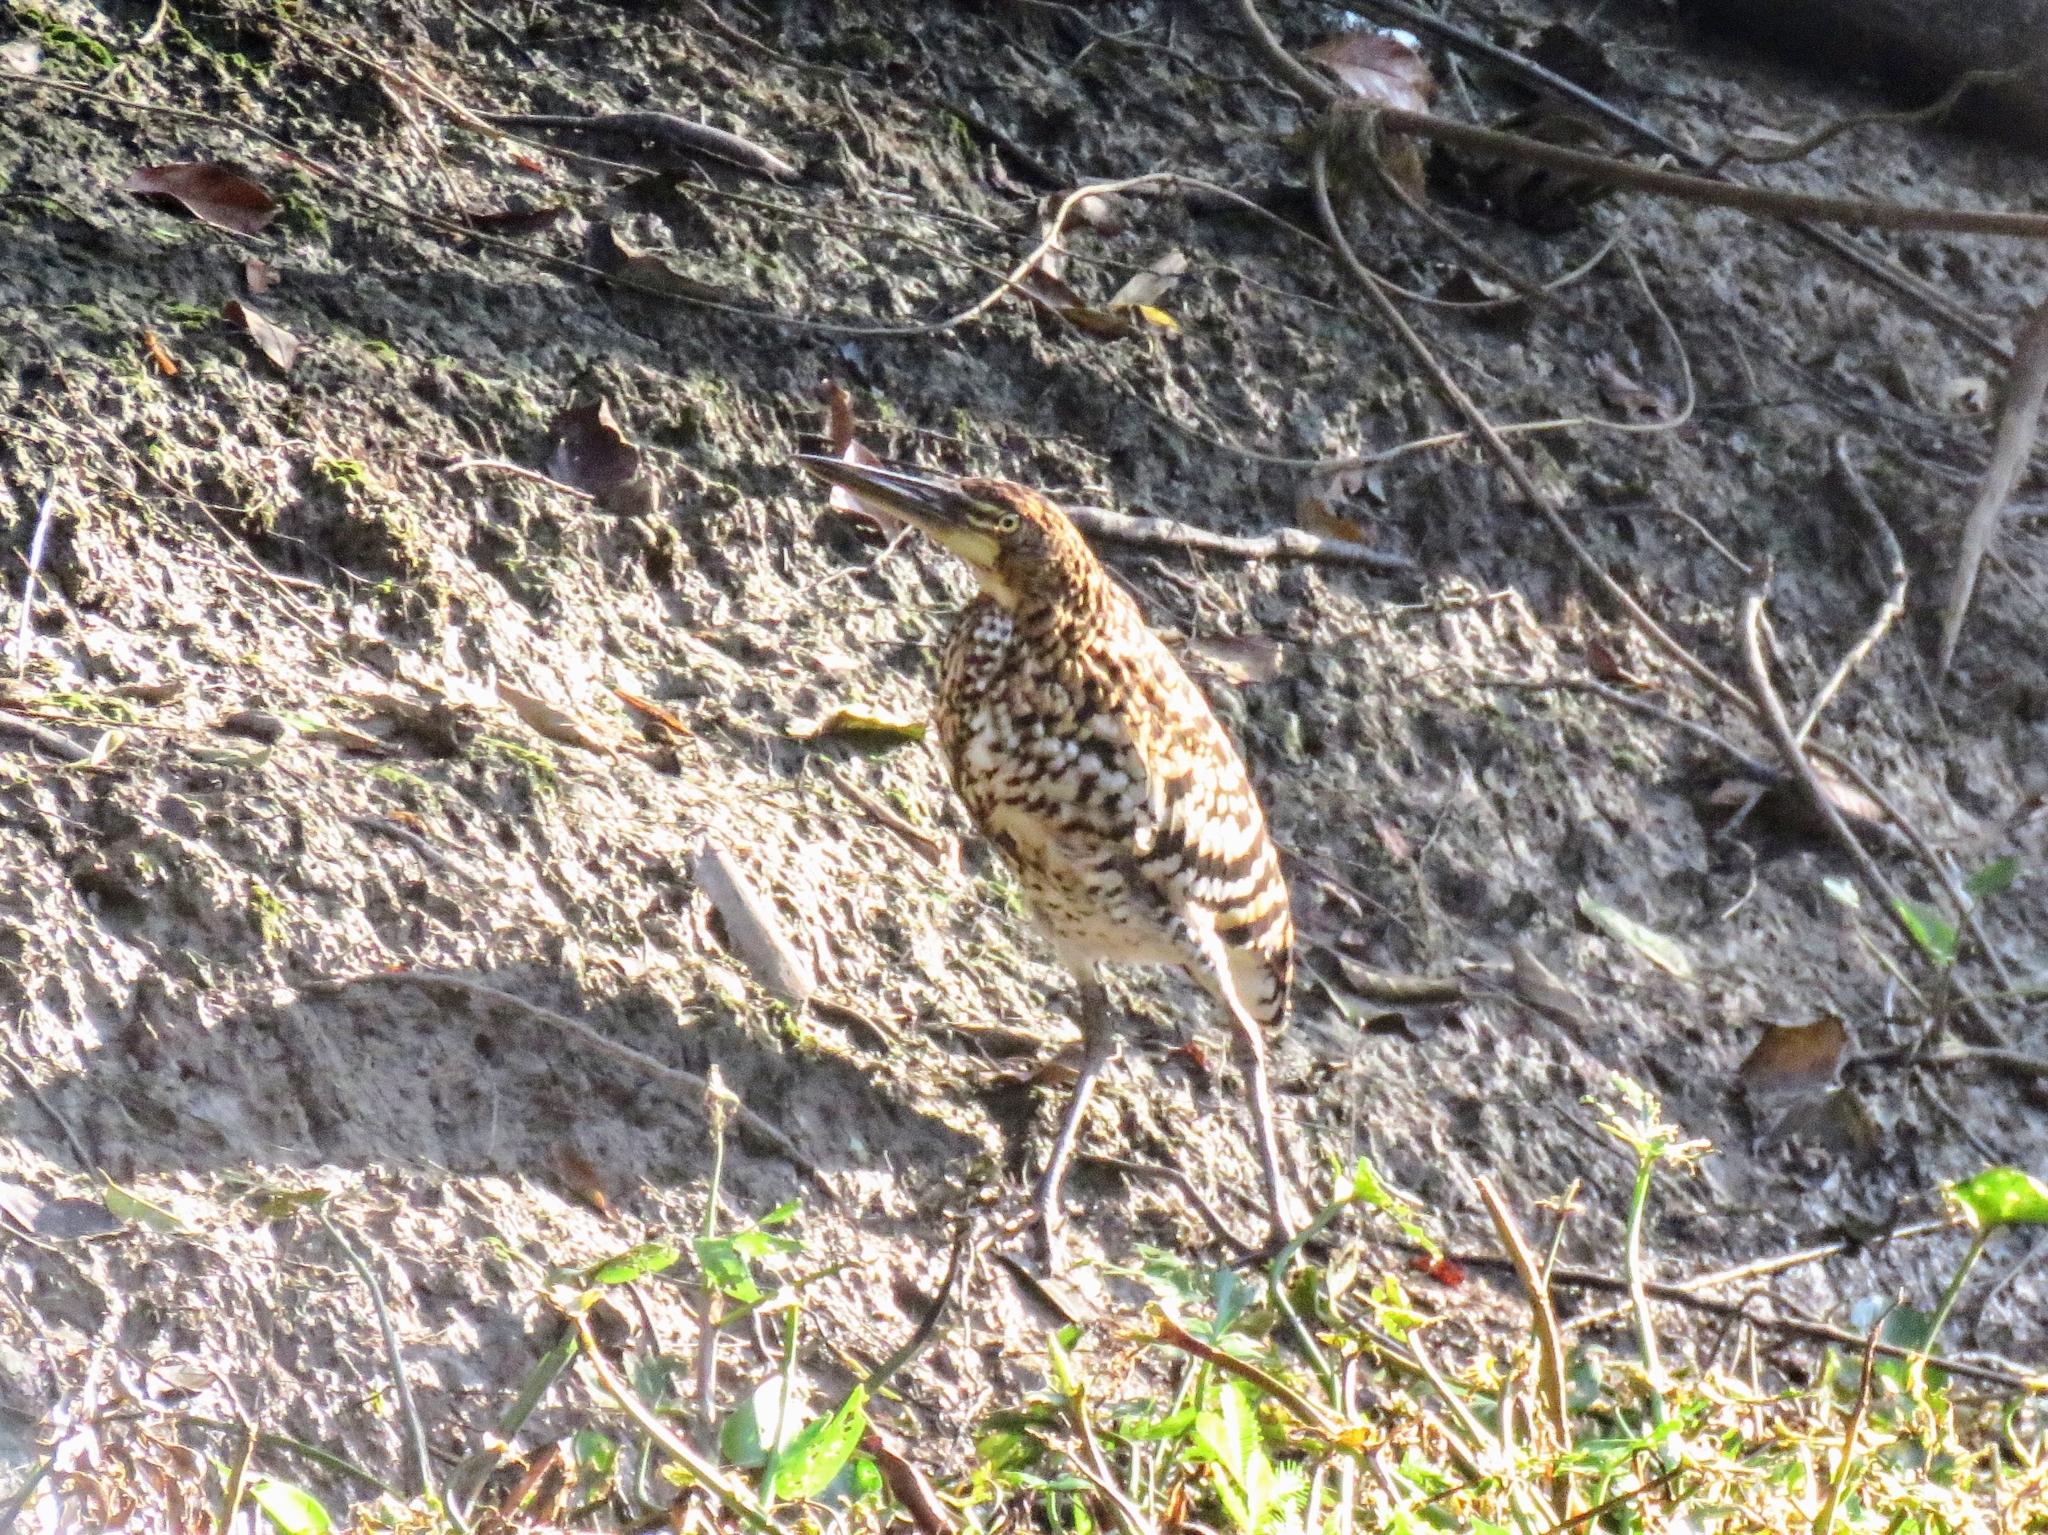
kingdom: Animalia
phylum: Chordata
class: Aves
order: Pelecaniformes
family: Ardeidae
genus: Tigrisoma
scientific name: Tigrisoma lineatum
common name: Rufescent tiger-heron
